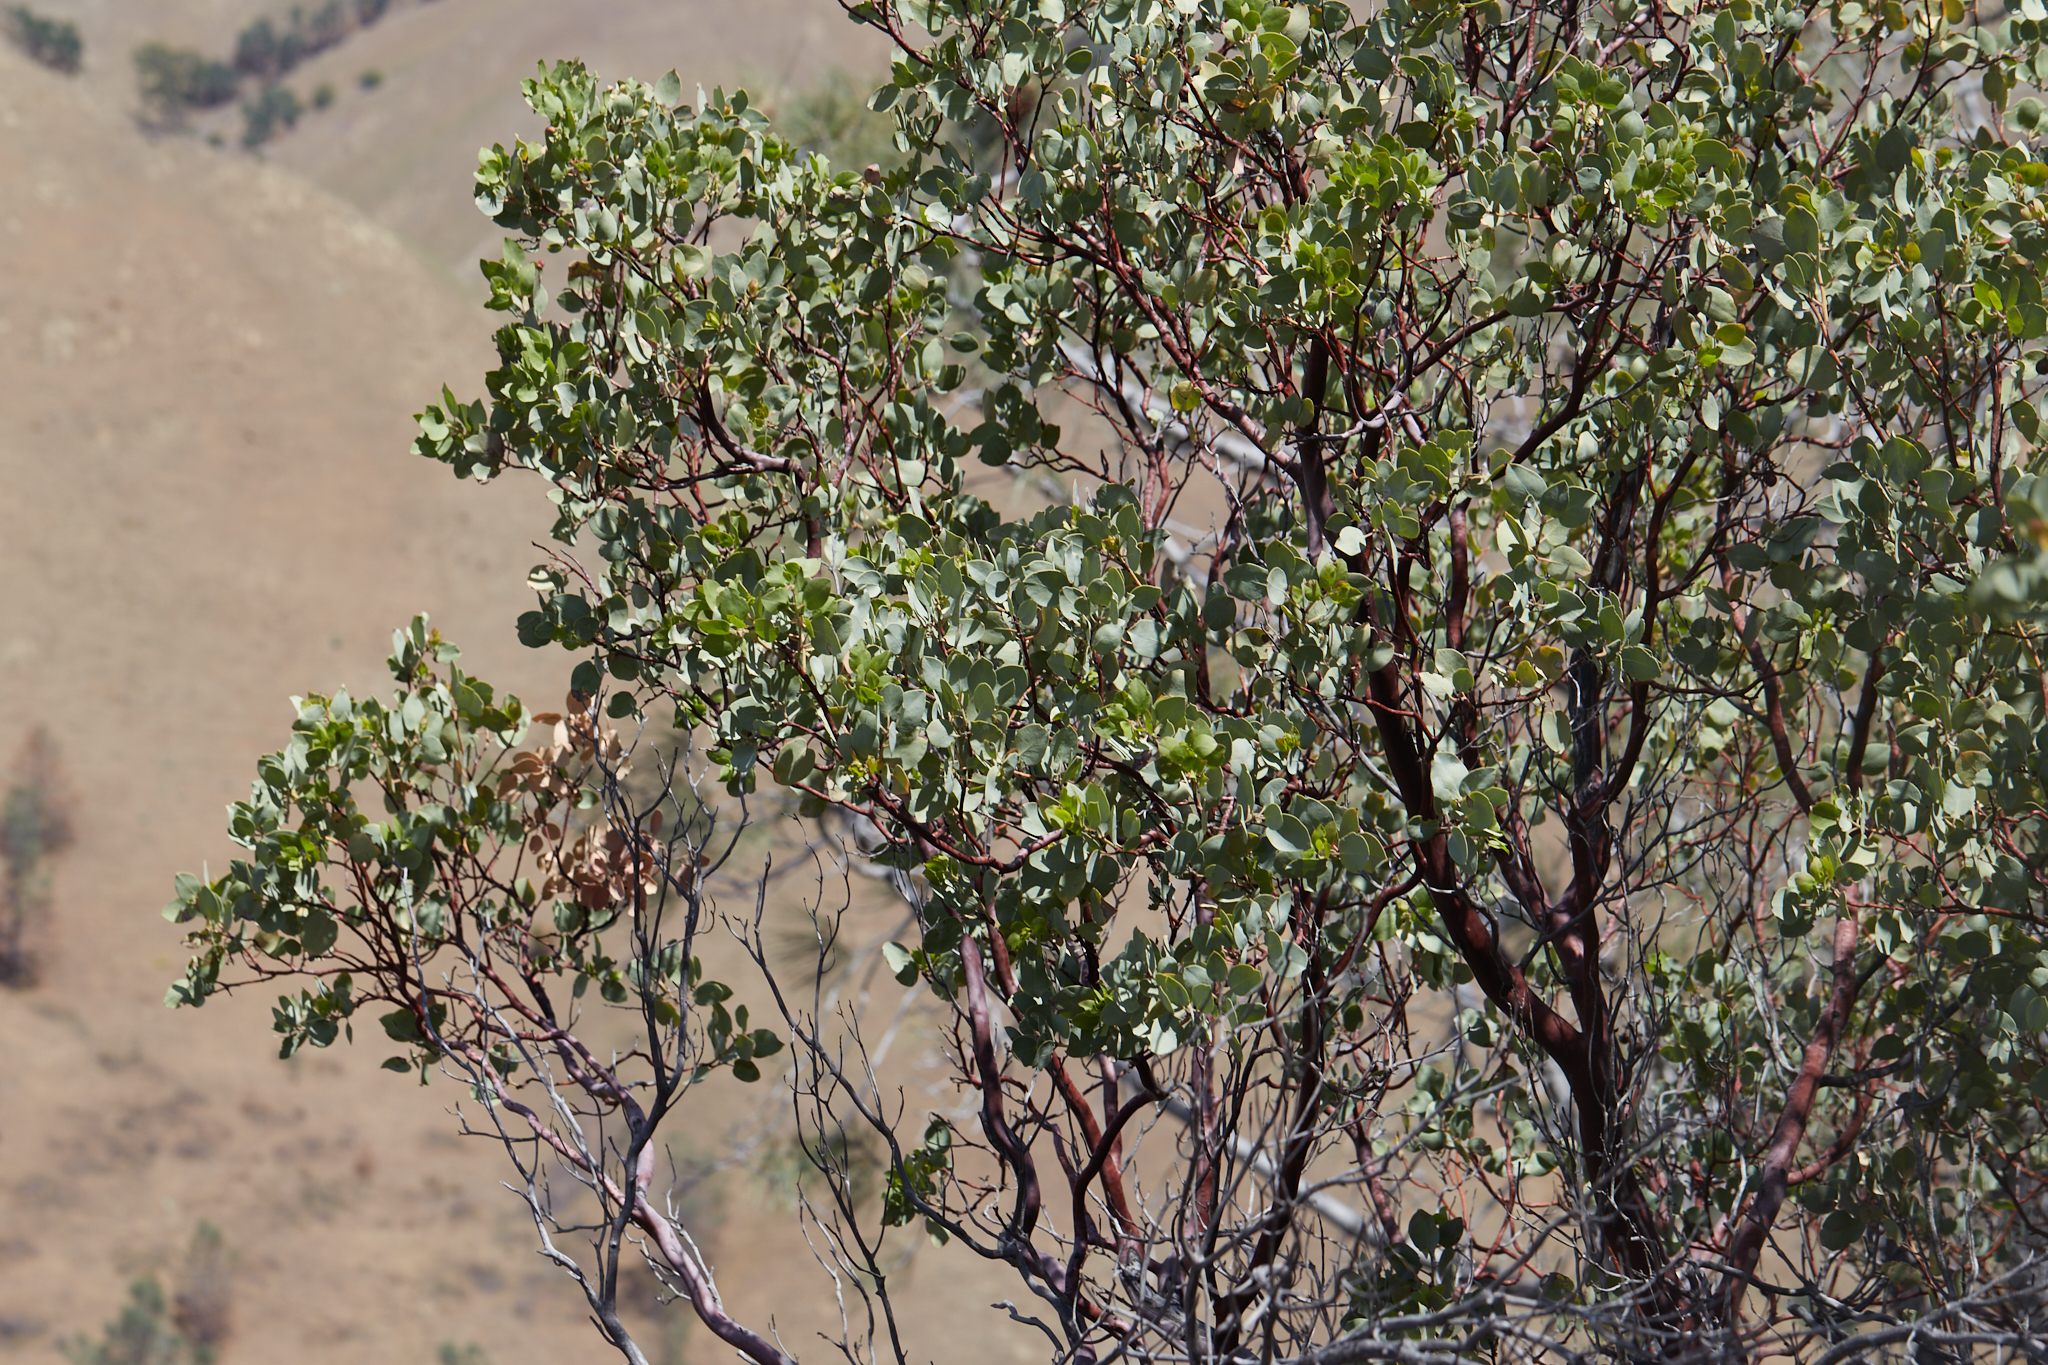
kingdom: Plantae
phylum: Tracheophyta
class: Magnoliopsida
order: Ericales
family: Ericaceae
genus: Arctostaphylos
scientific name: Arctostaphylos glauca
